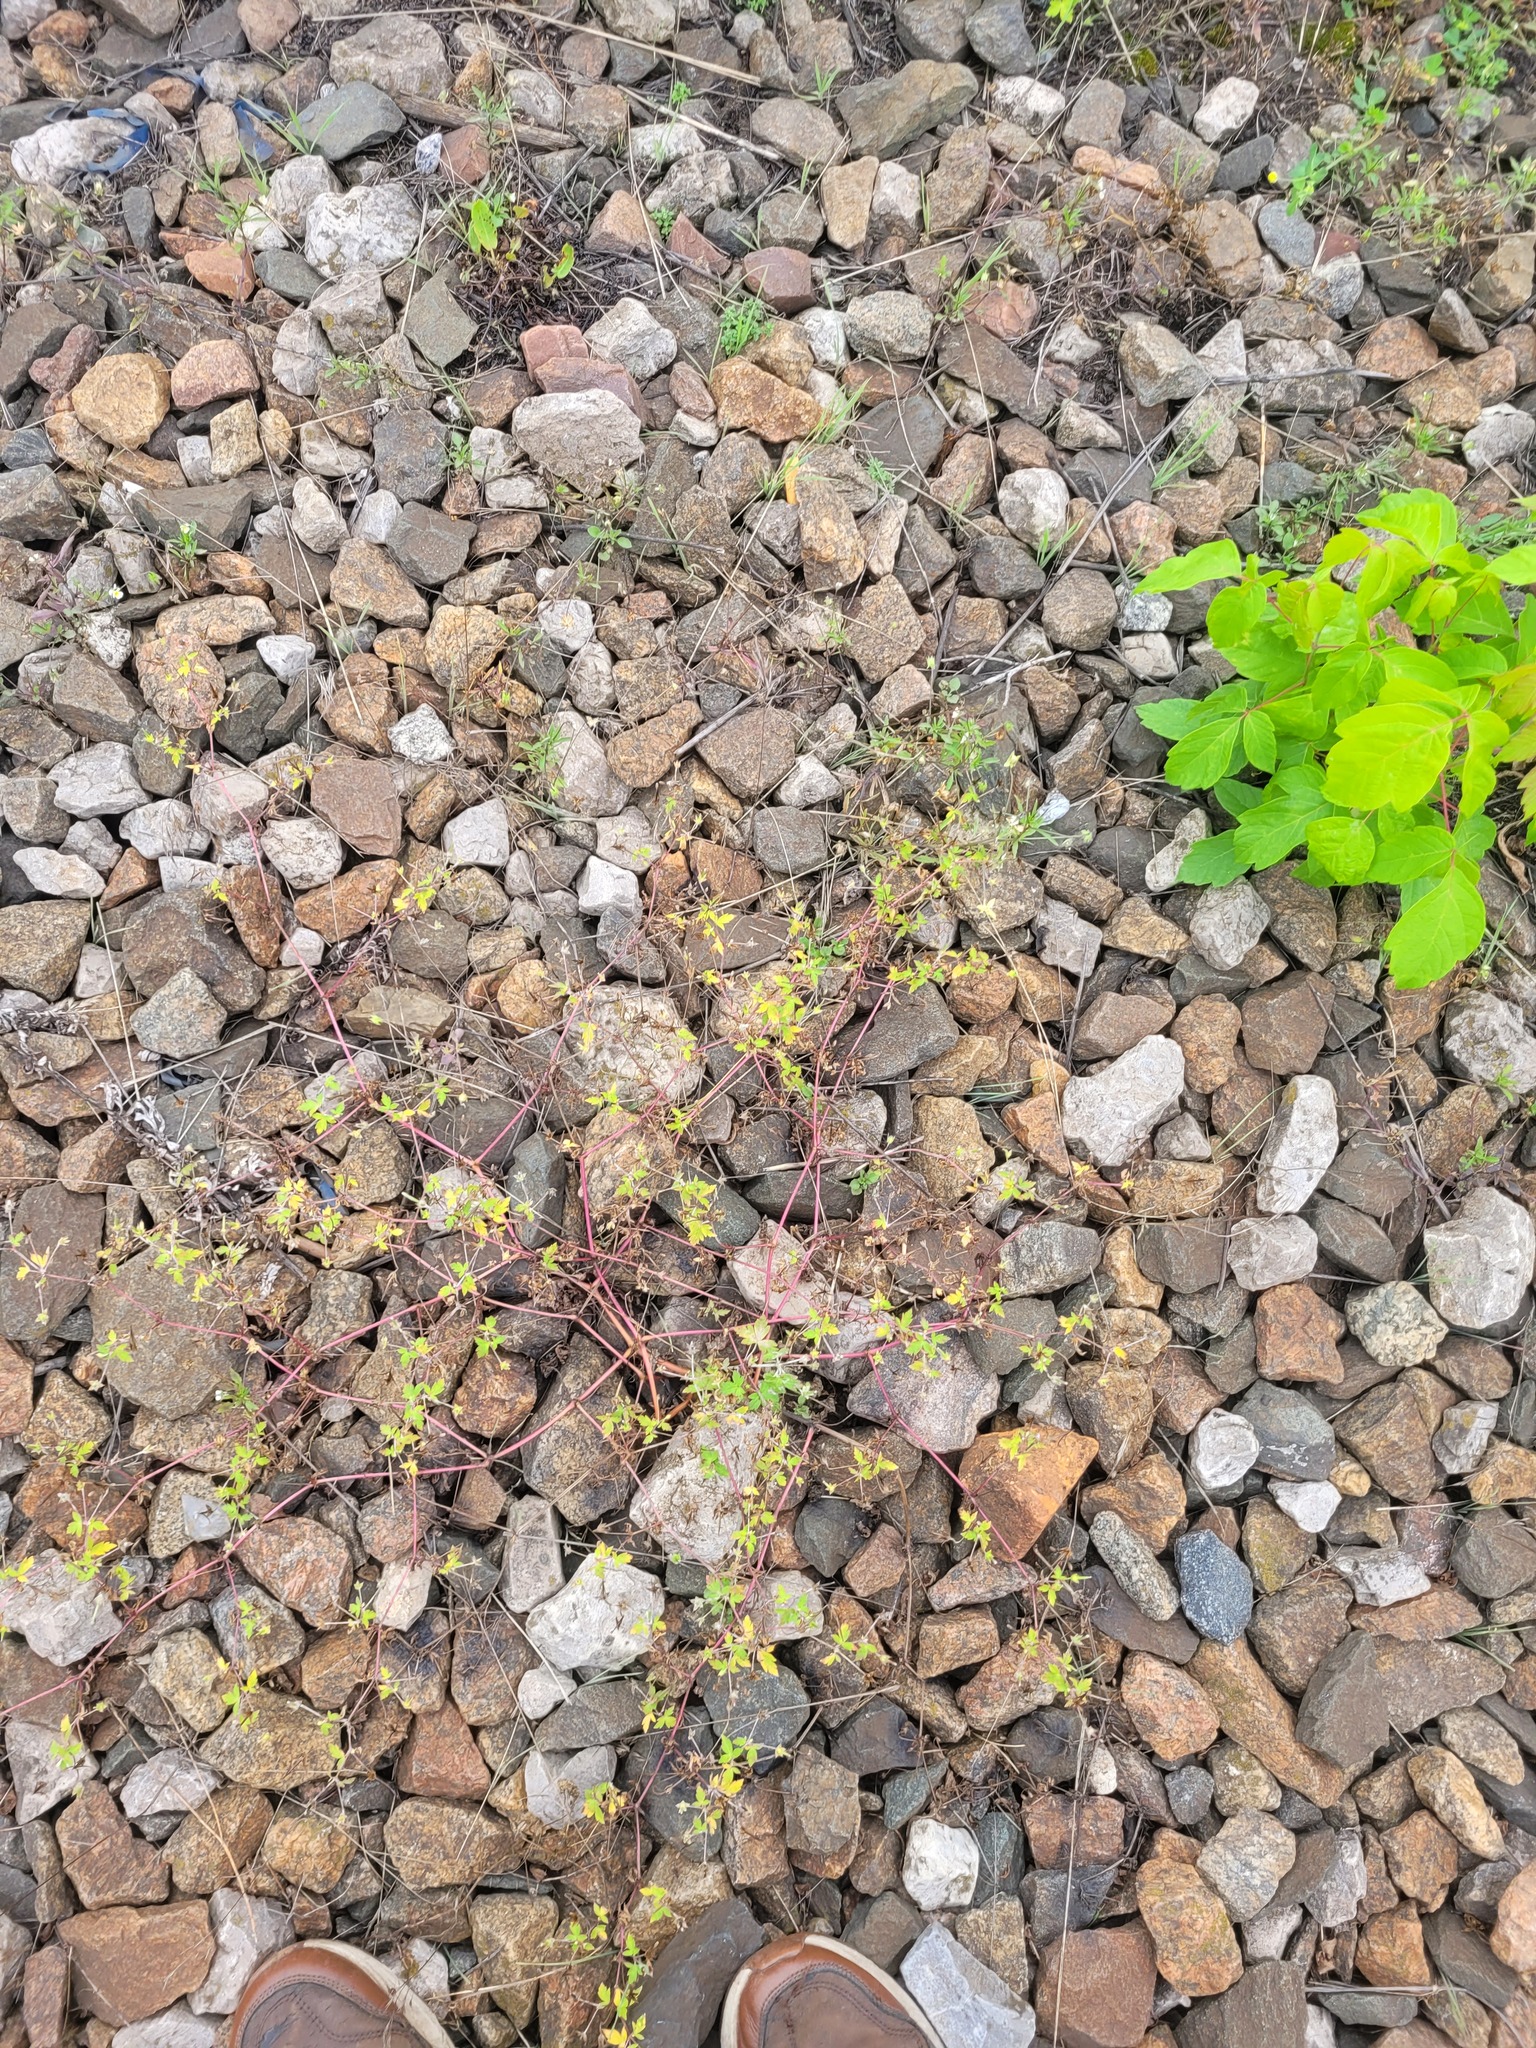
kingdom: Plantae
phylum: Tracheophyta
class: Magnoliopsida
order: Geraniales
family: Geraniaceae
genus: Geranium
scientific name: Geranium sibiricum
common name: Siberian crane's-bill
